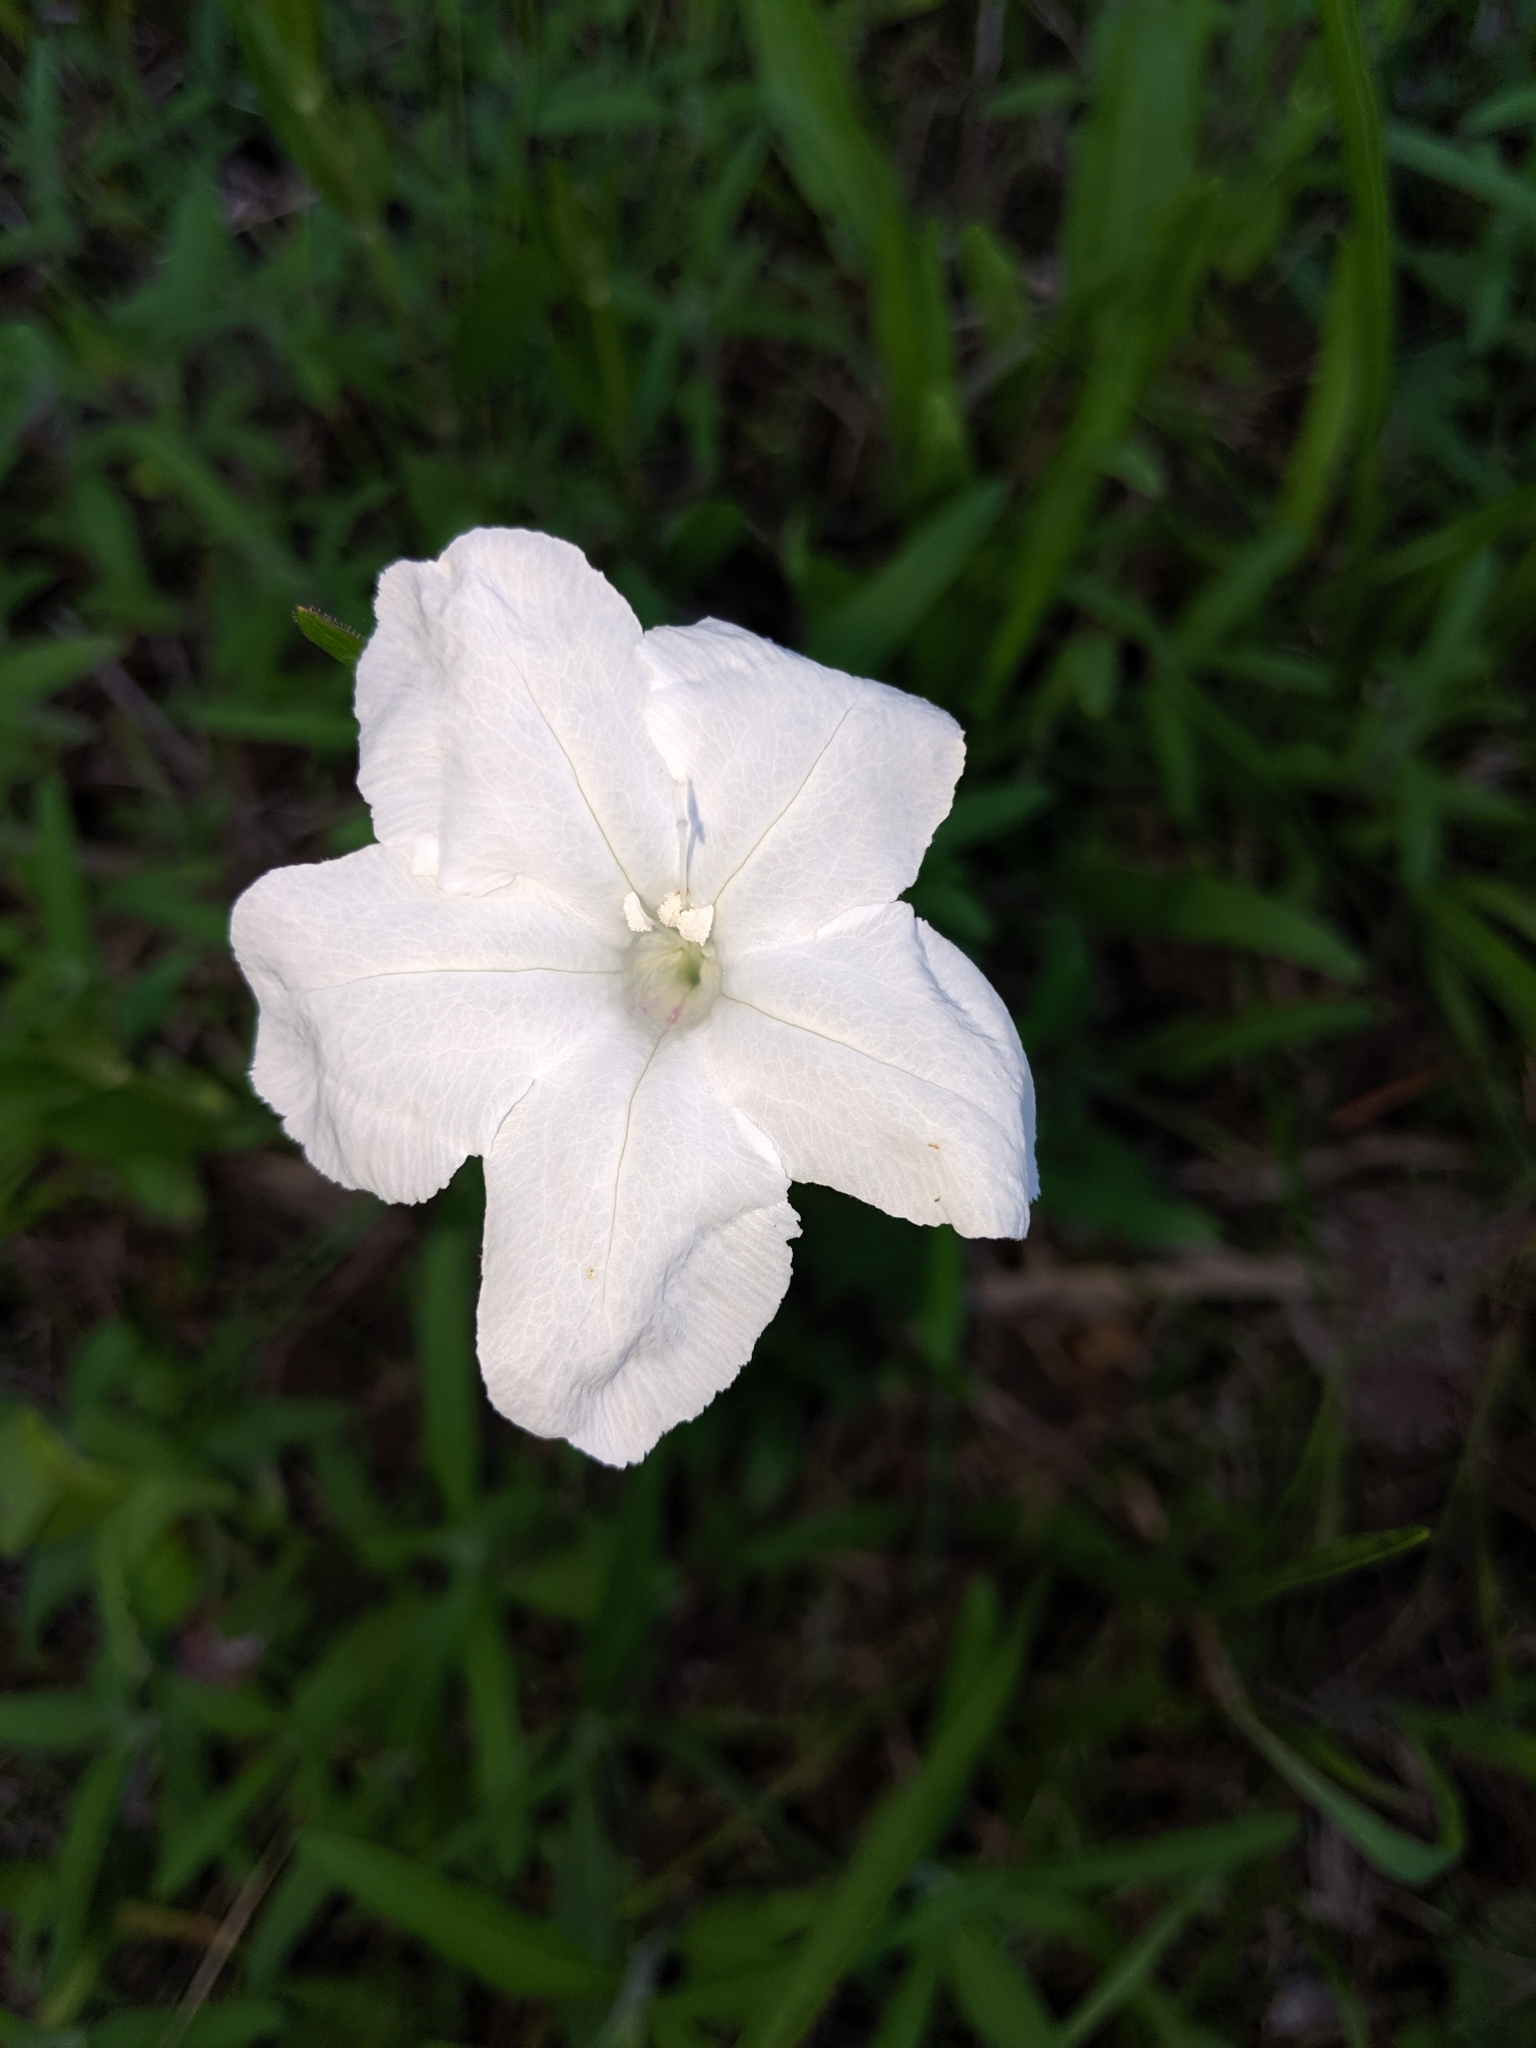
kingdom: Plantae
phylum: Tracheophyta
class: Magnoliopsida
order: Lamiales
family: Acanthaceae
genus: Ruellia
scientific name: Ruellia noctiflora
